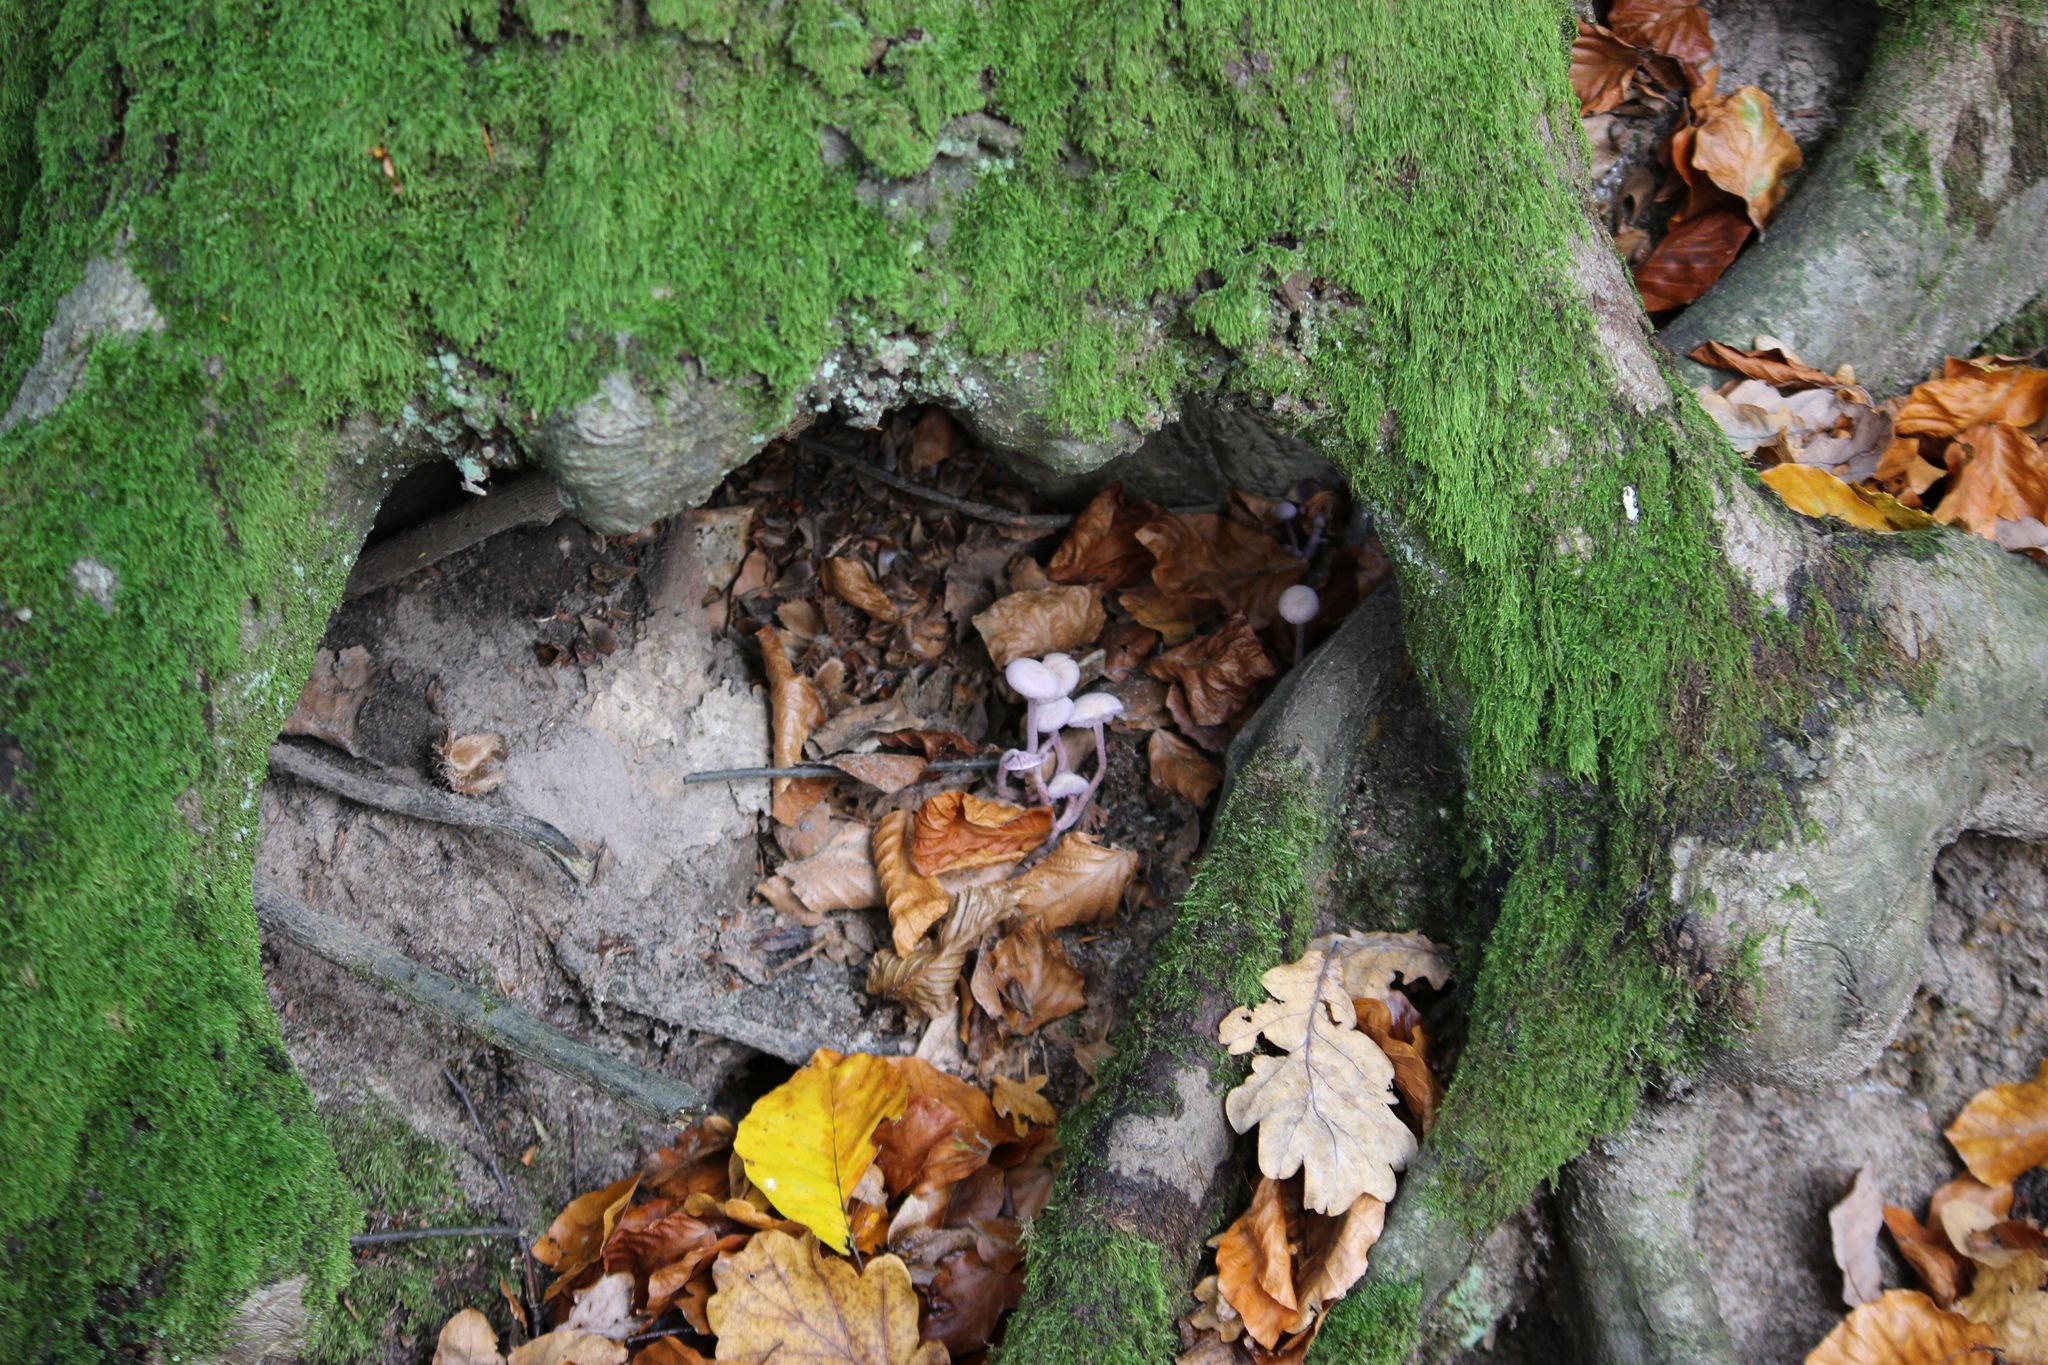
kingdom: Fungi
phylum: Basidiomycota
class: Agaricomycetes
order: Agaricales
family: Hydnangiaceae
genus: Laccaria
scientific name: Laccaria amethystina
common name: Amethyst deceiver
